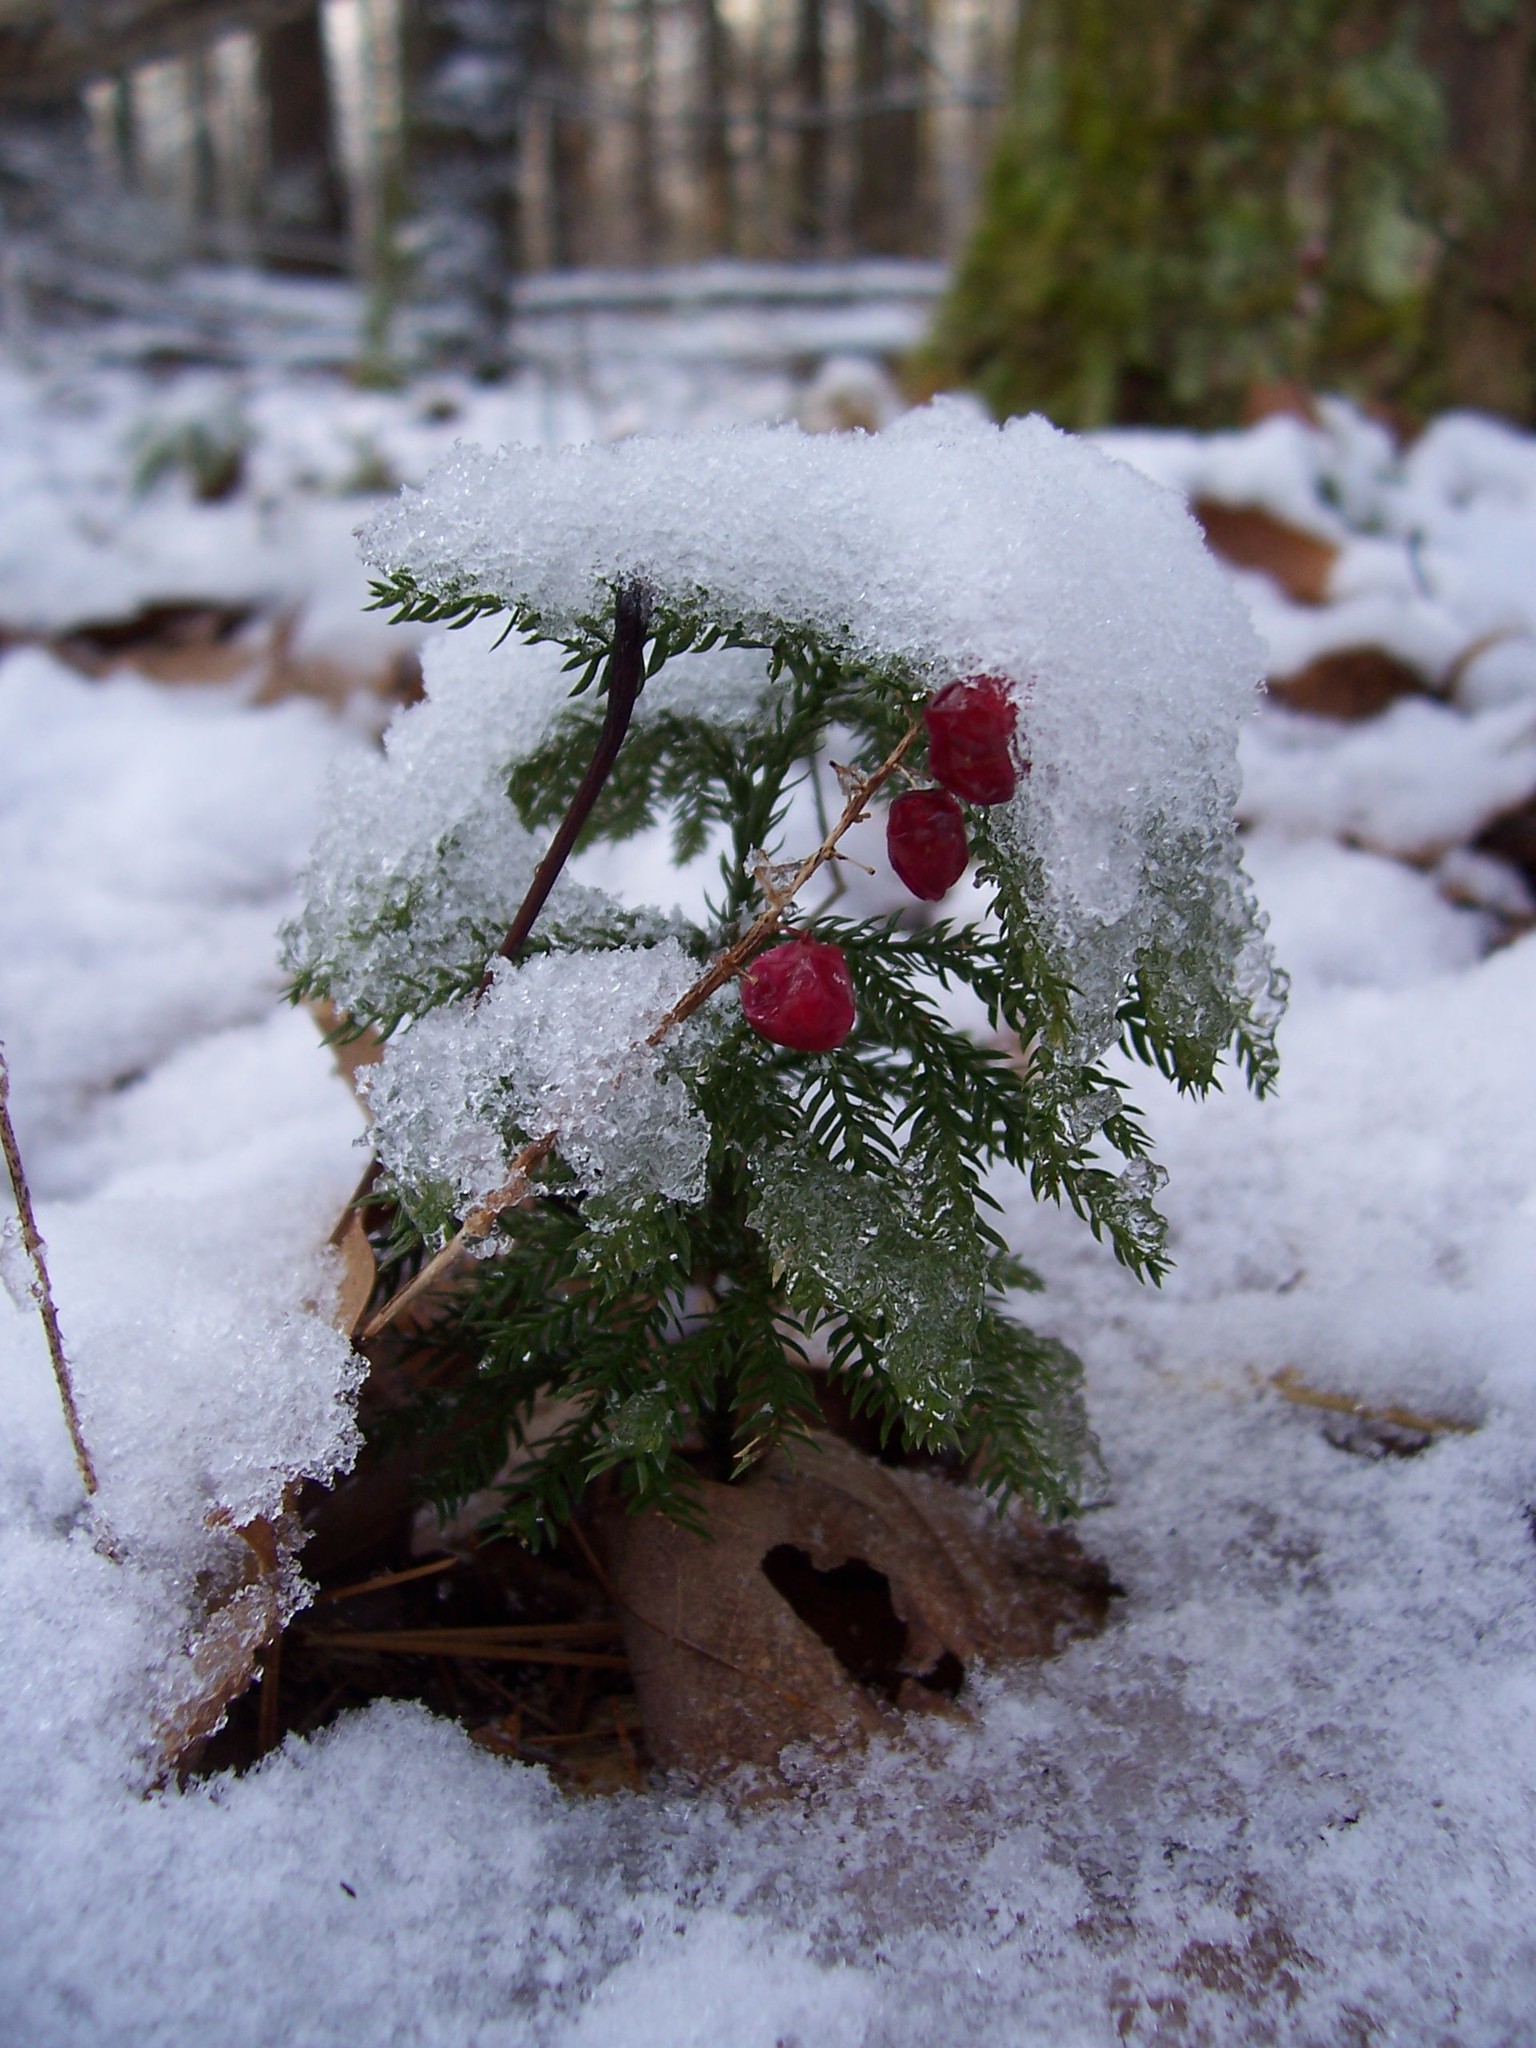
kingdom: Plantae
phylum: Tracheophyta
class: Lycopodiopsida
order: Lycopodiales
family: Lycopodiaceae
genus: Dendrolycopodium
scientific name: Dendrolycopodium obscurum
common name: Common ground-pine
